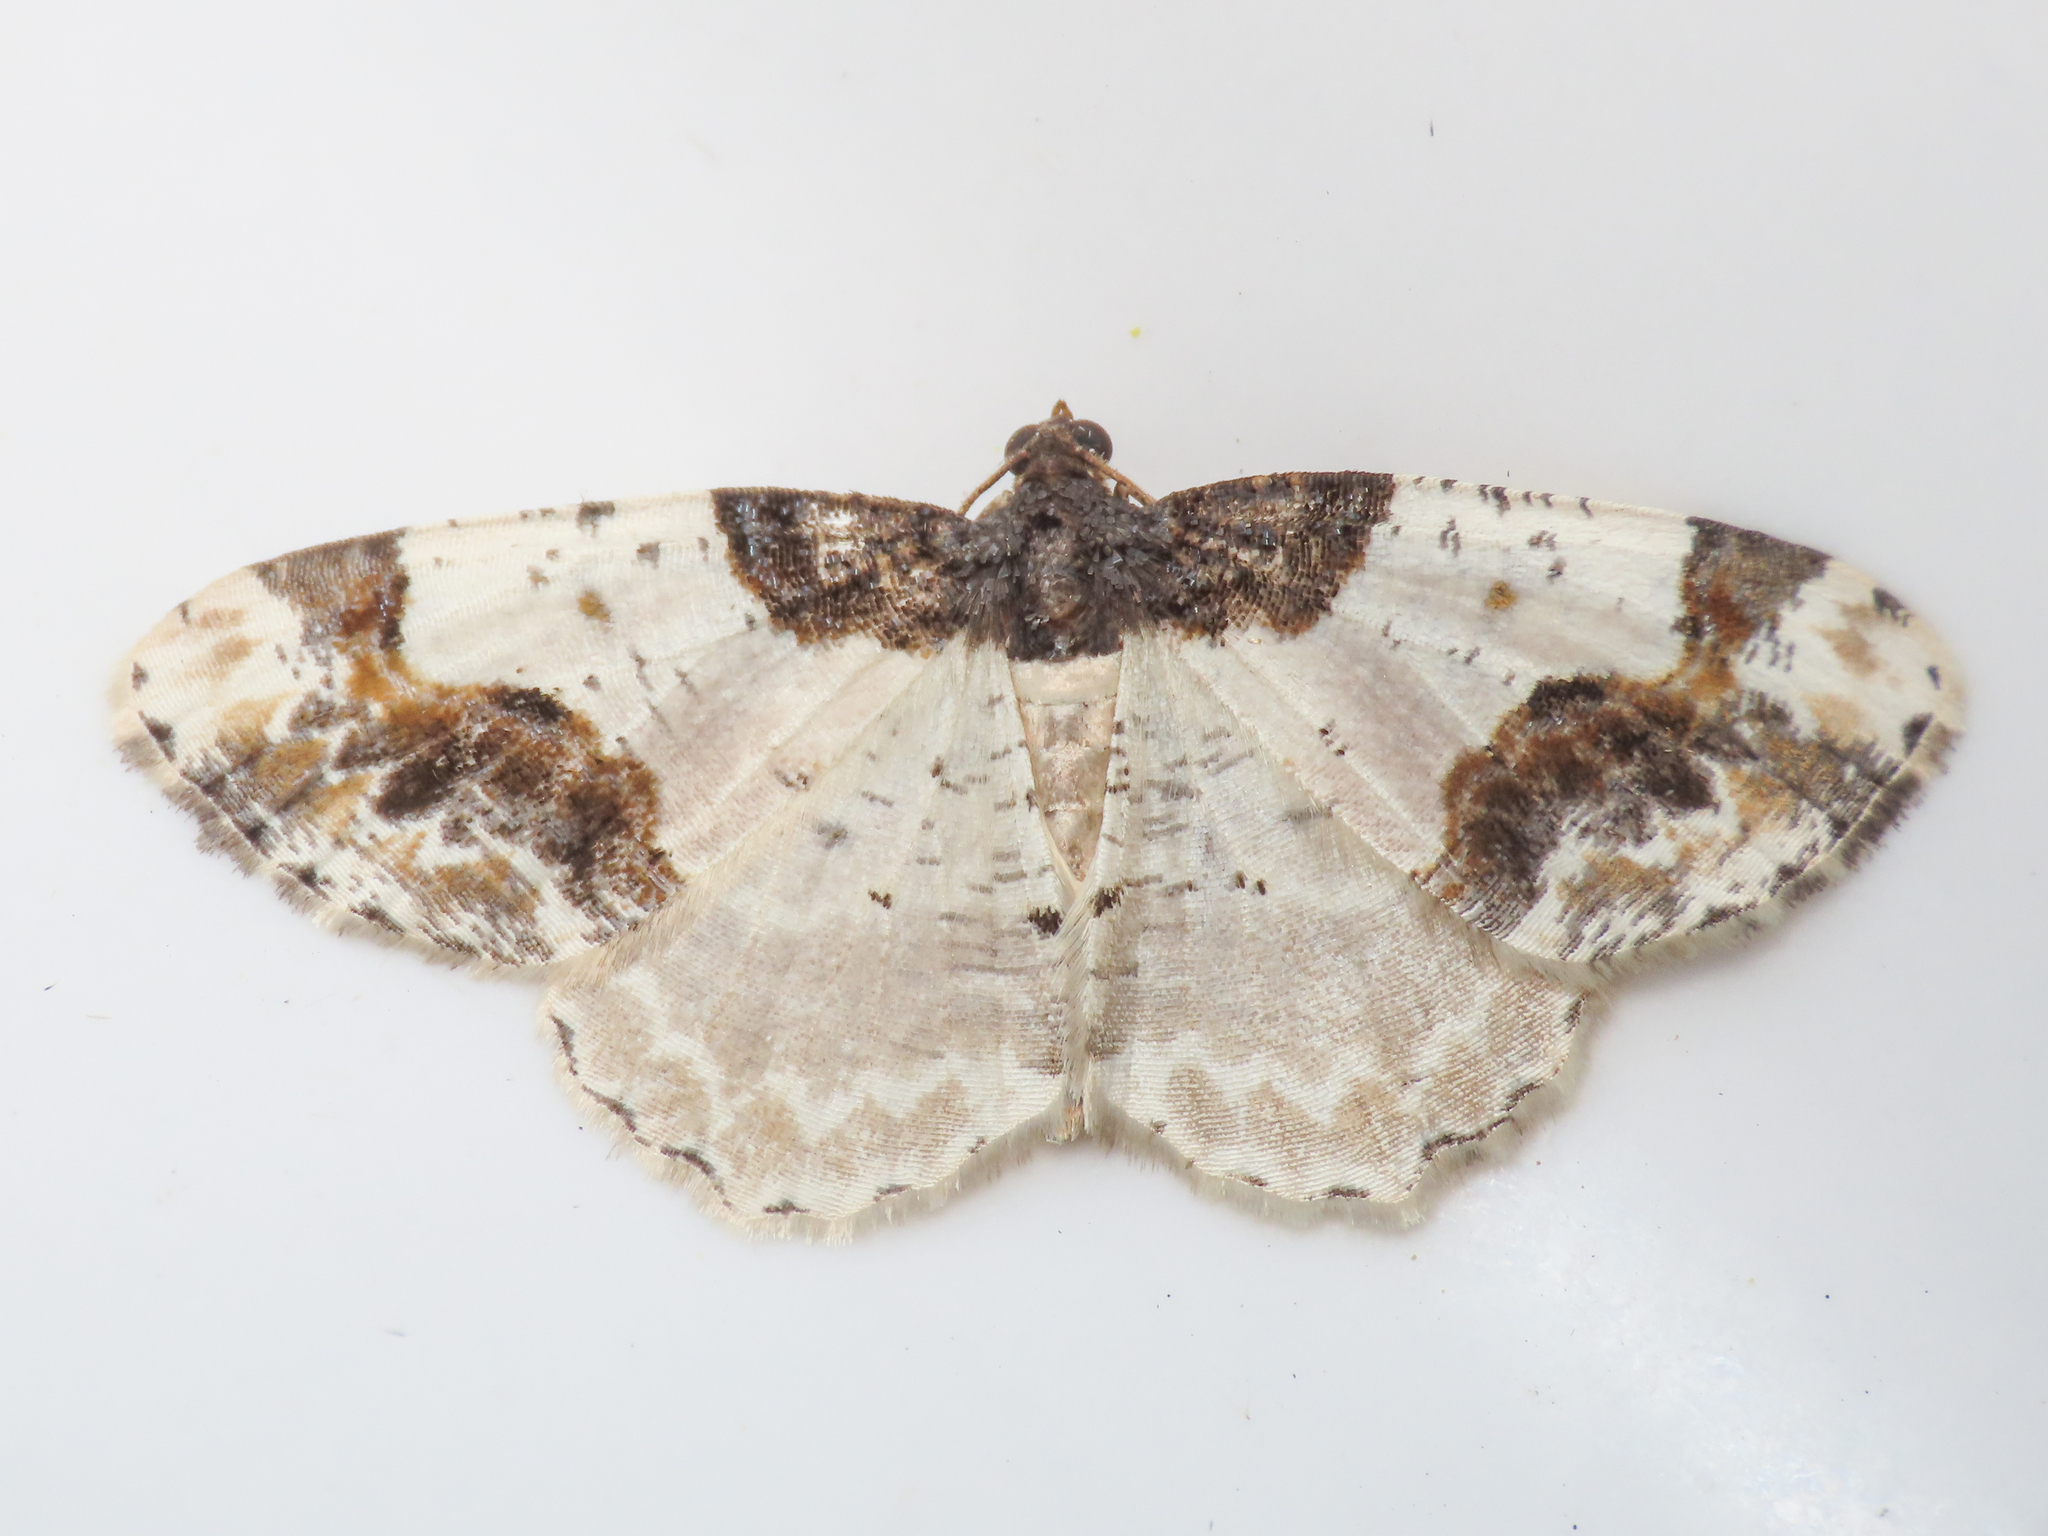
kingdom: Animalia
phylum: Arthropoda
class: Insecta
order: Lepidoptera
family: Geometridae
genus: Ligdia
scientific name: Ligdia adustata
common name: Scorched carpet
